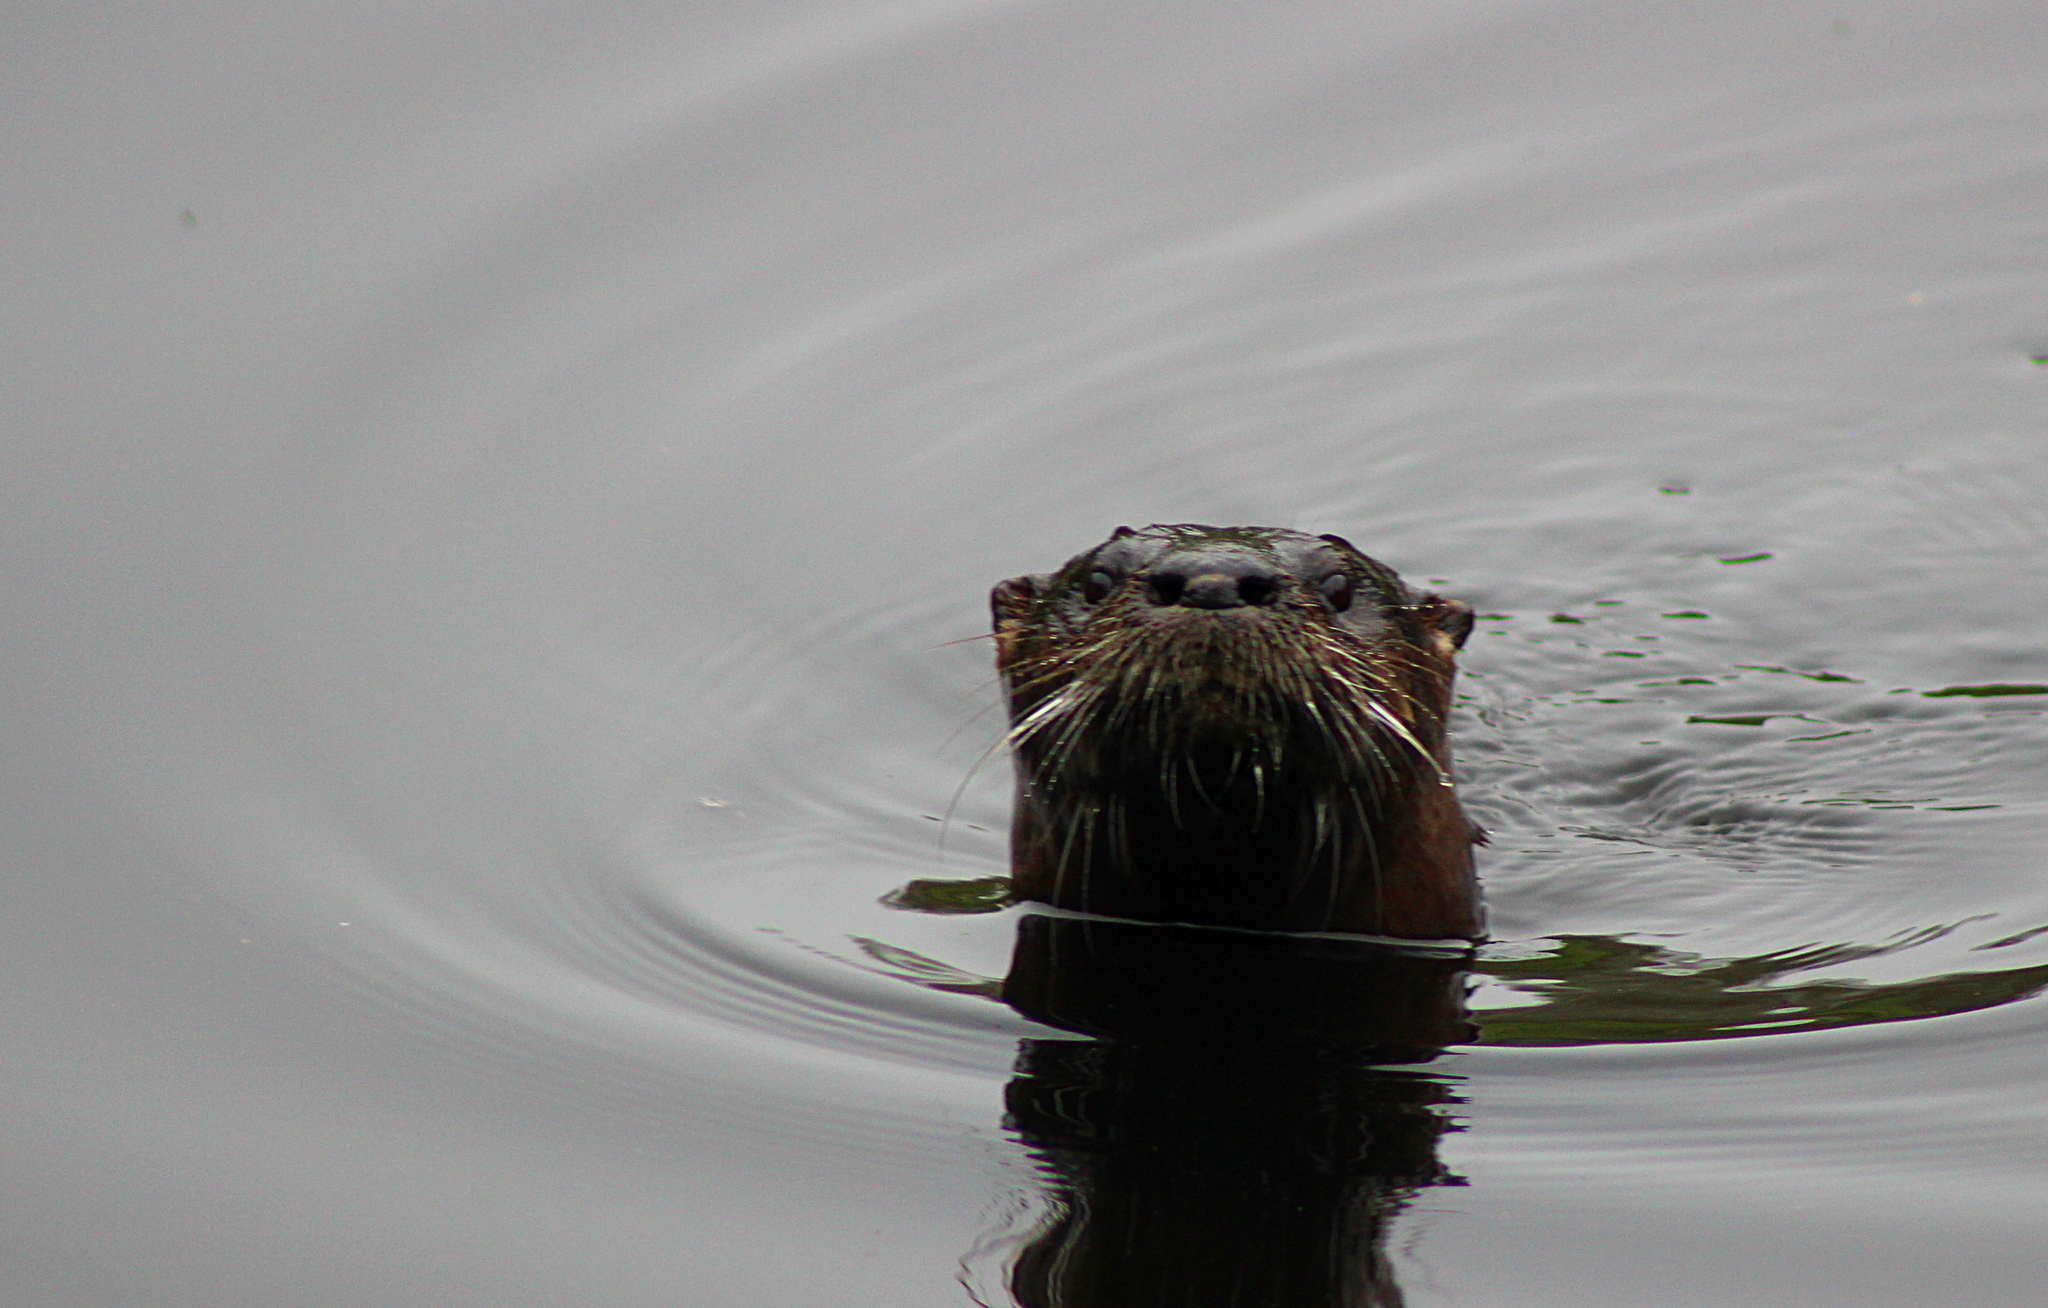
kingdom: Animalia
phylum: Chordata
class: Mammalia
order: Carnivora
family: Mustelidae
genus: Lontra
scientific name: Lontra canadensis
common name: North american river otter
